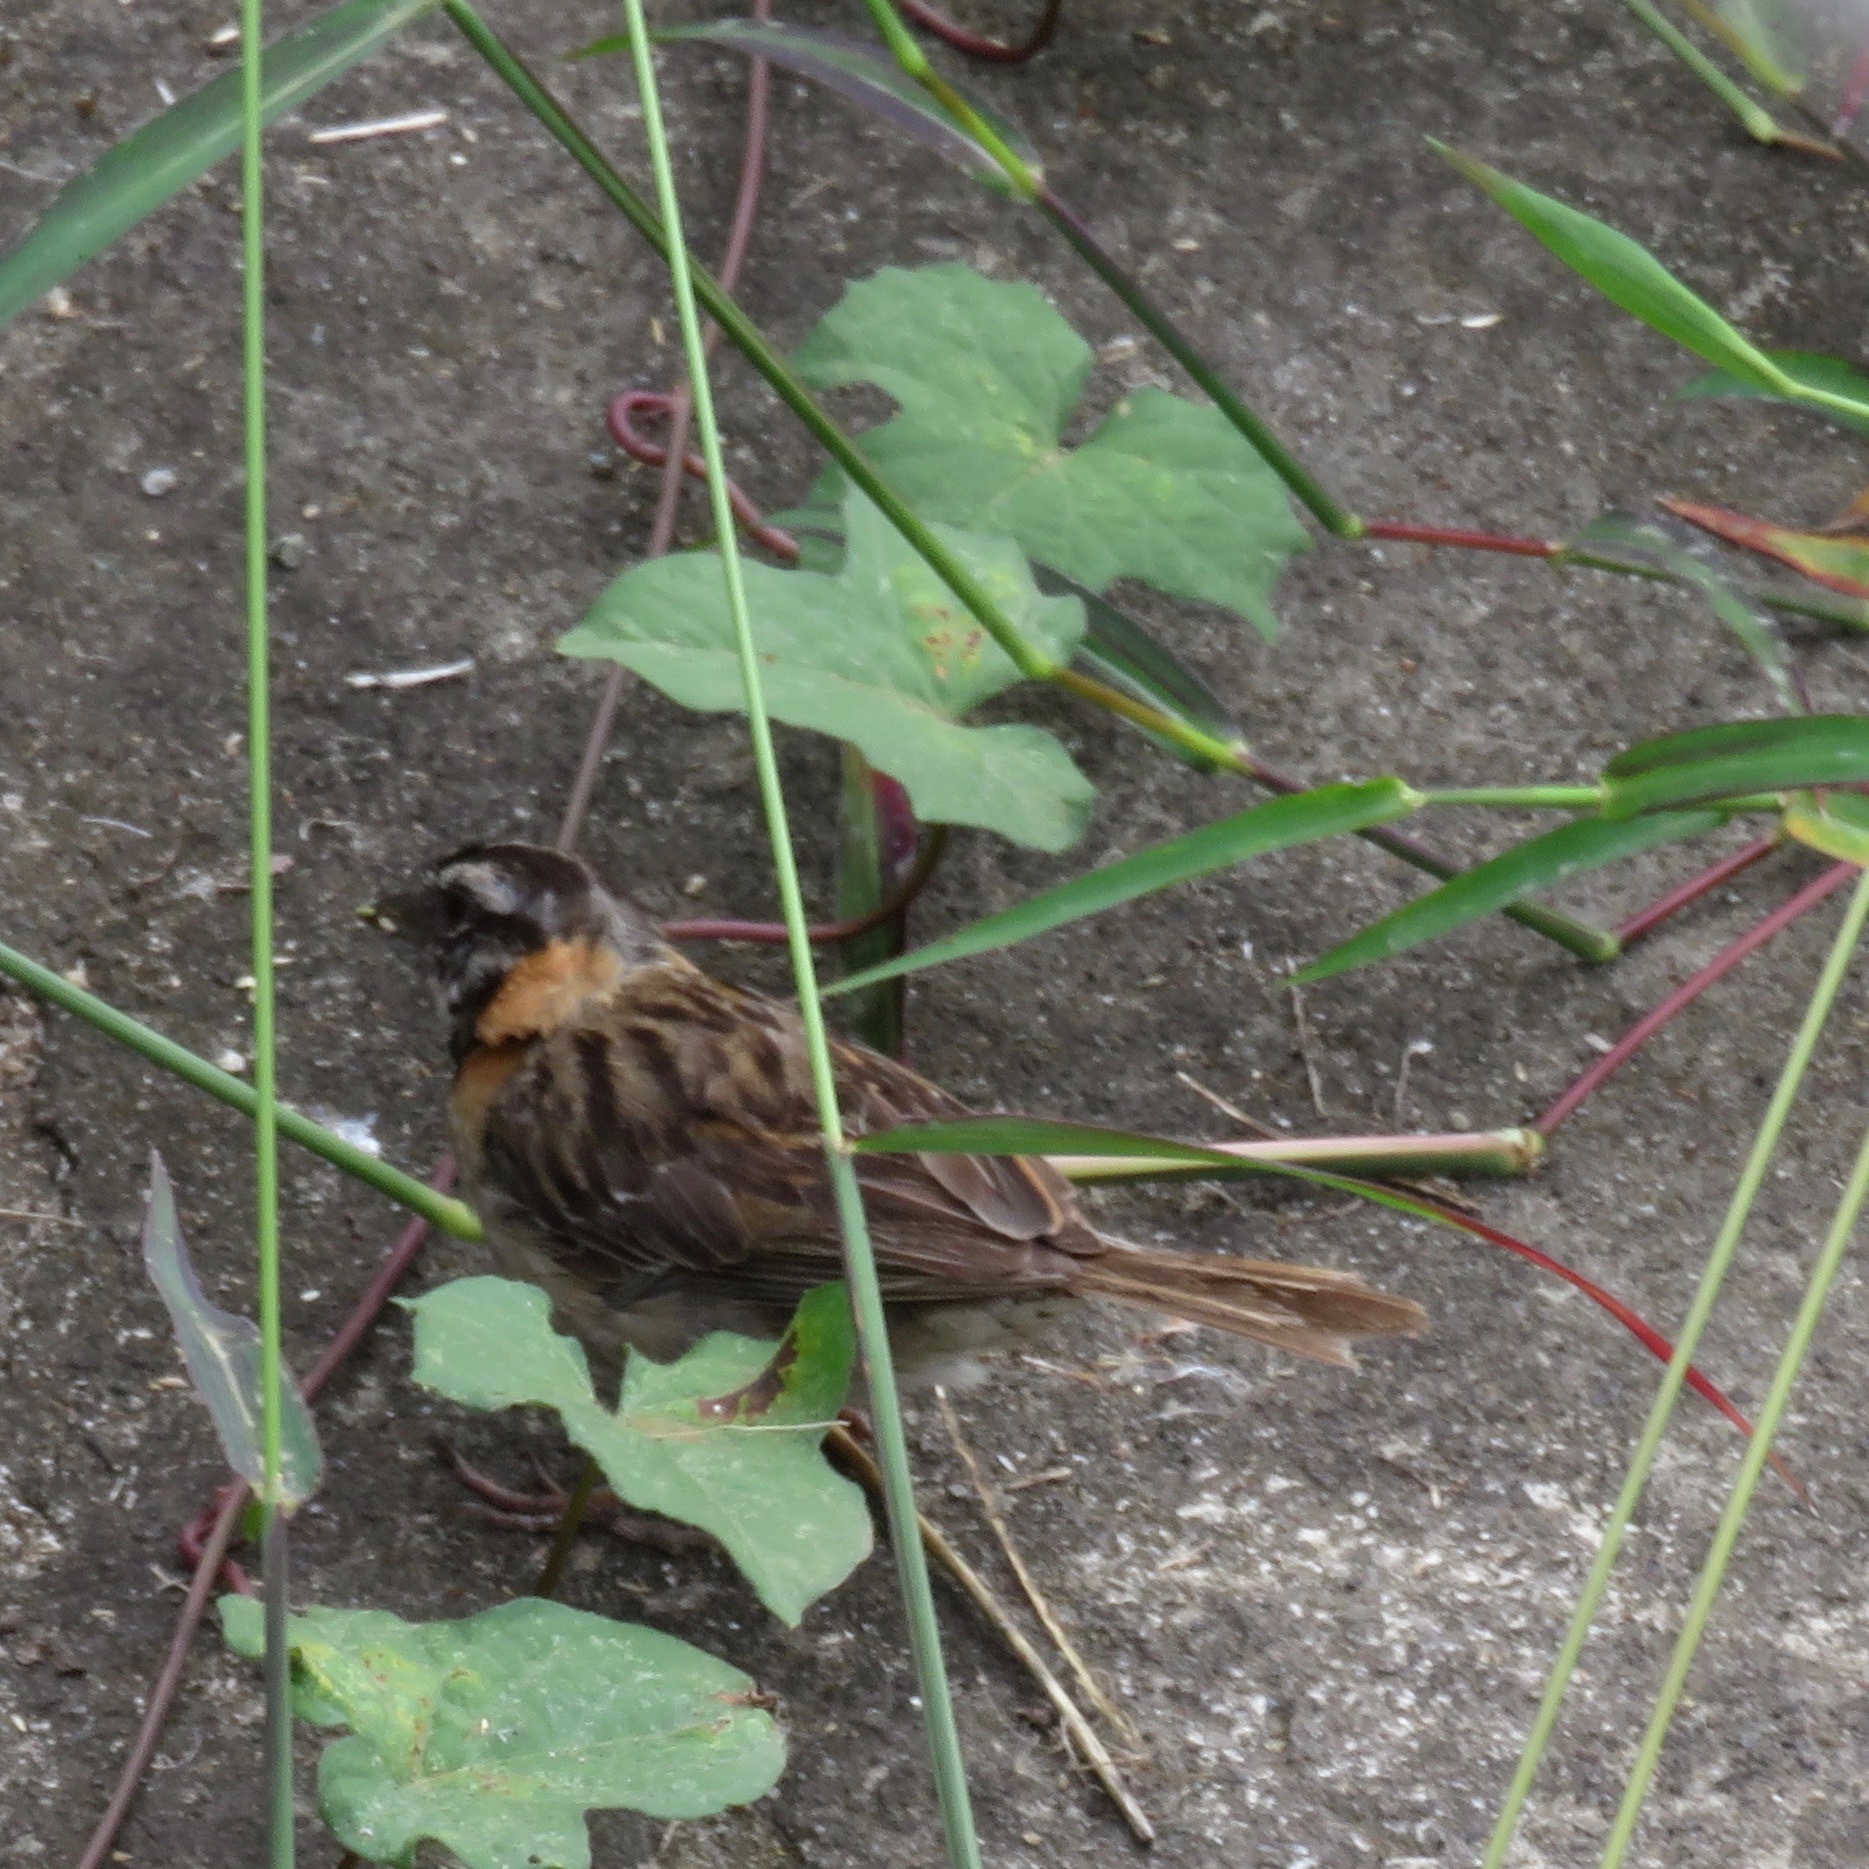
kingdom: Animalia
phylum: Chordata
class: Aves
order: Passeriformes
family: Passerellidae
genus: Zonotrichia
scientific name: Zonotrichia capensis
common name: Rufous-collared sparrow
